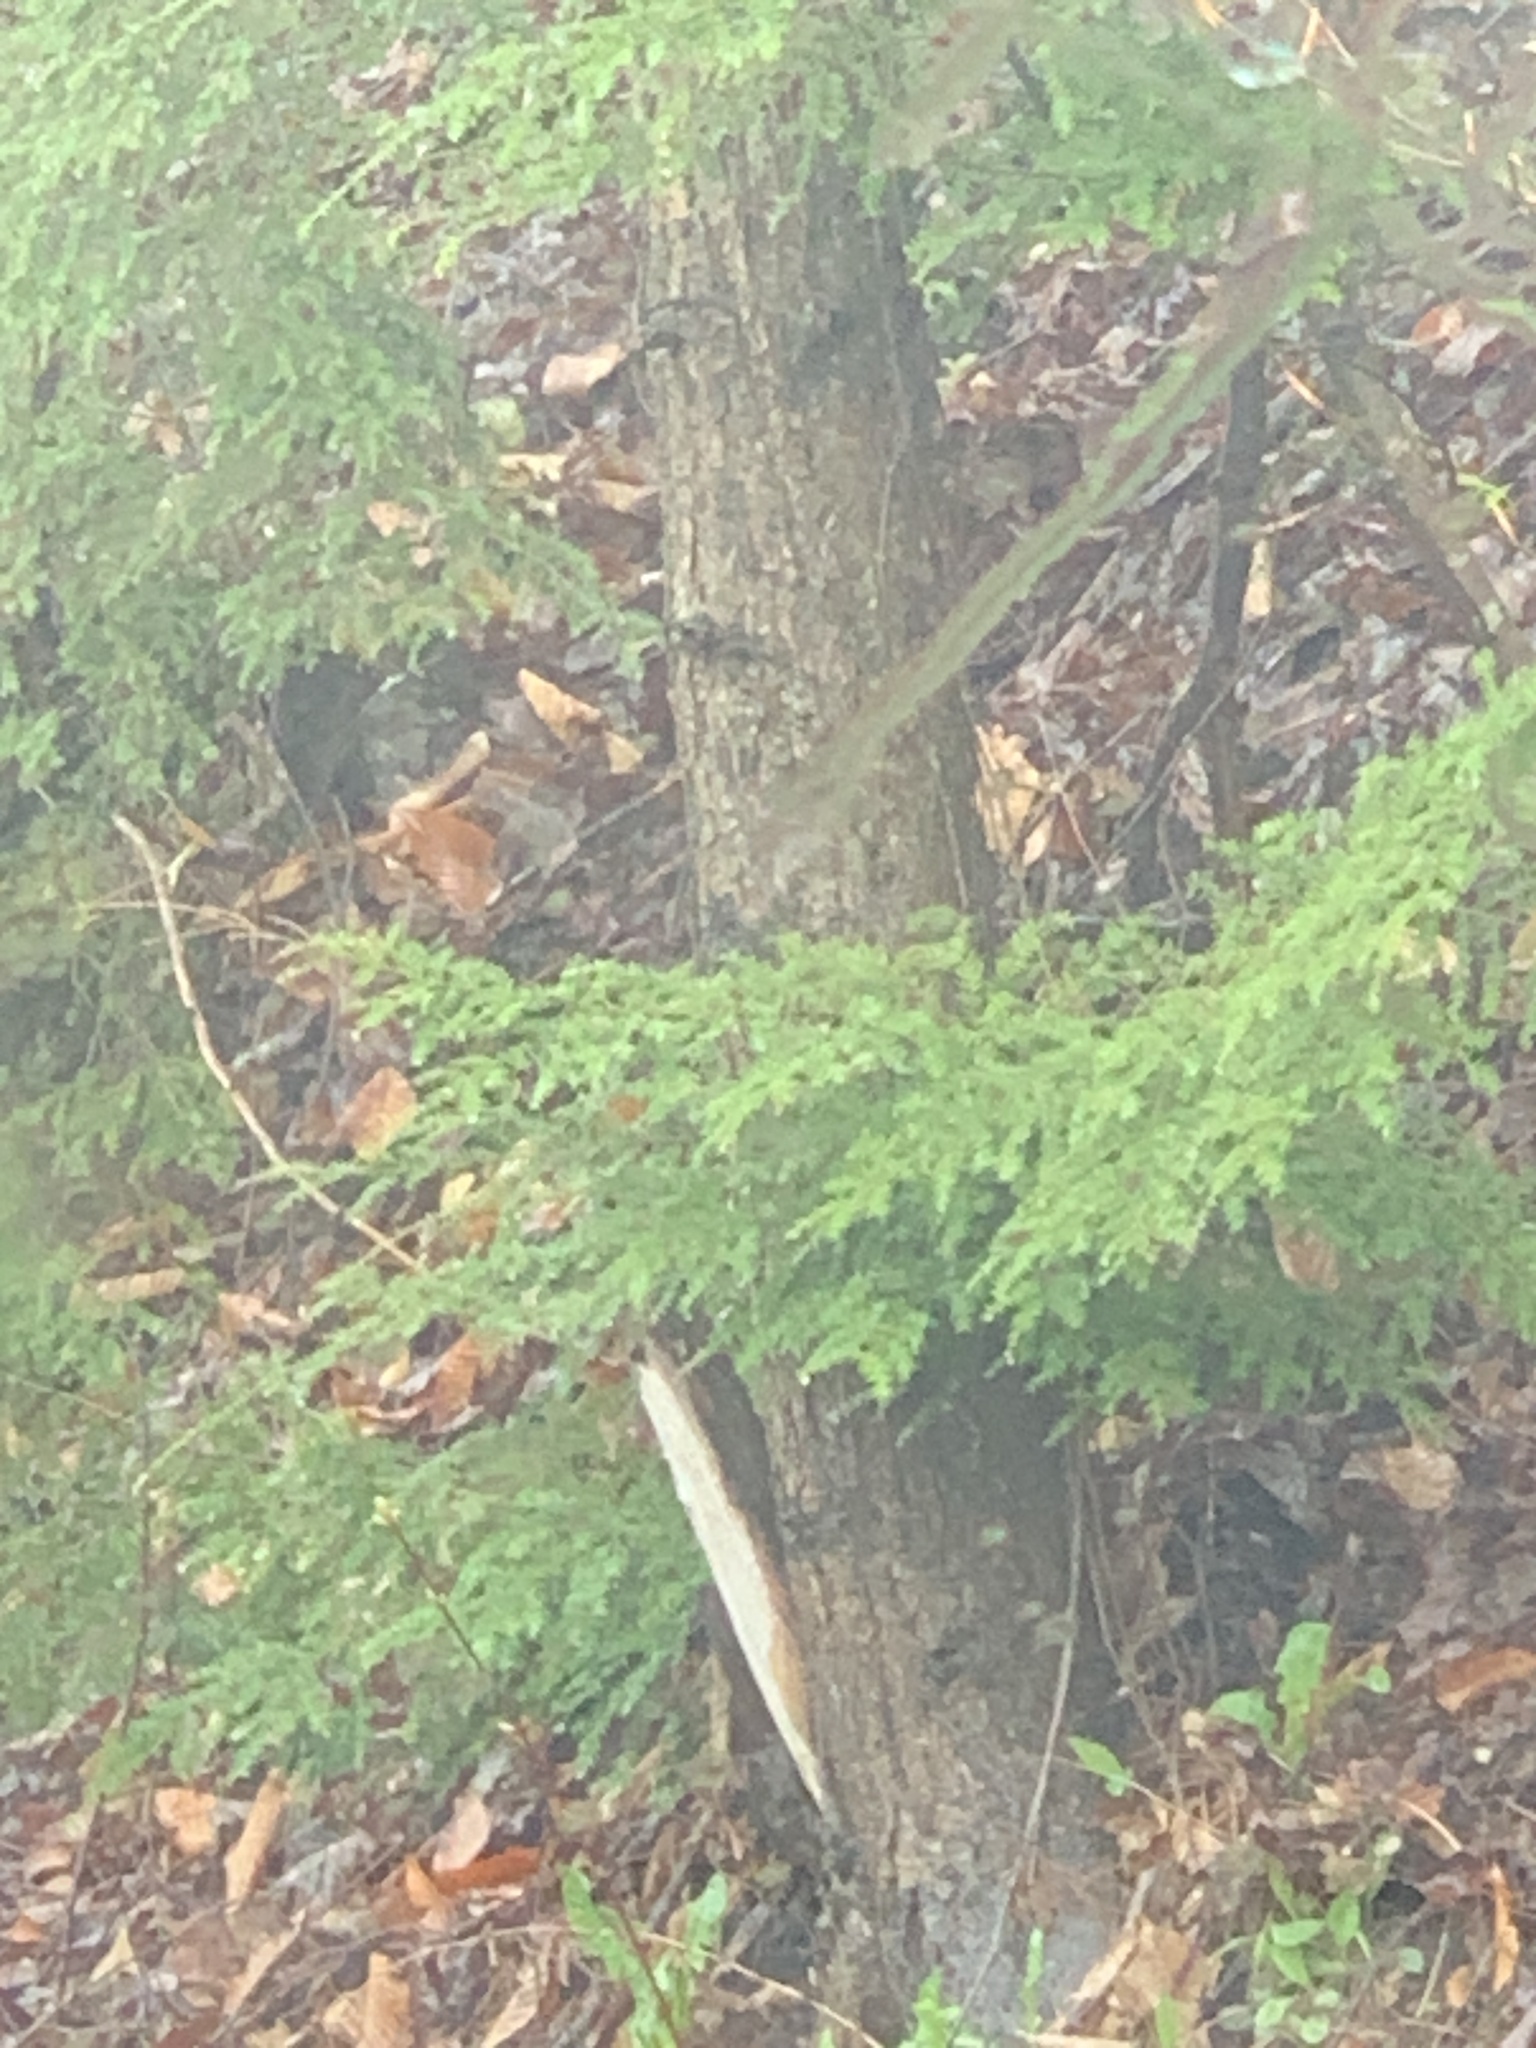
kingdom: Plantae
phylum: Tracheophyta
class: Pinopsida
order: Pinales
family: Pinaceae
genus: Tsuga
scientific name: Tsuga canadensis
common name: Eastern hemlock
